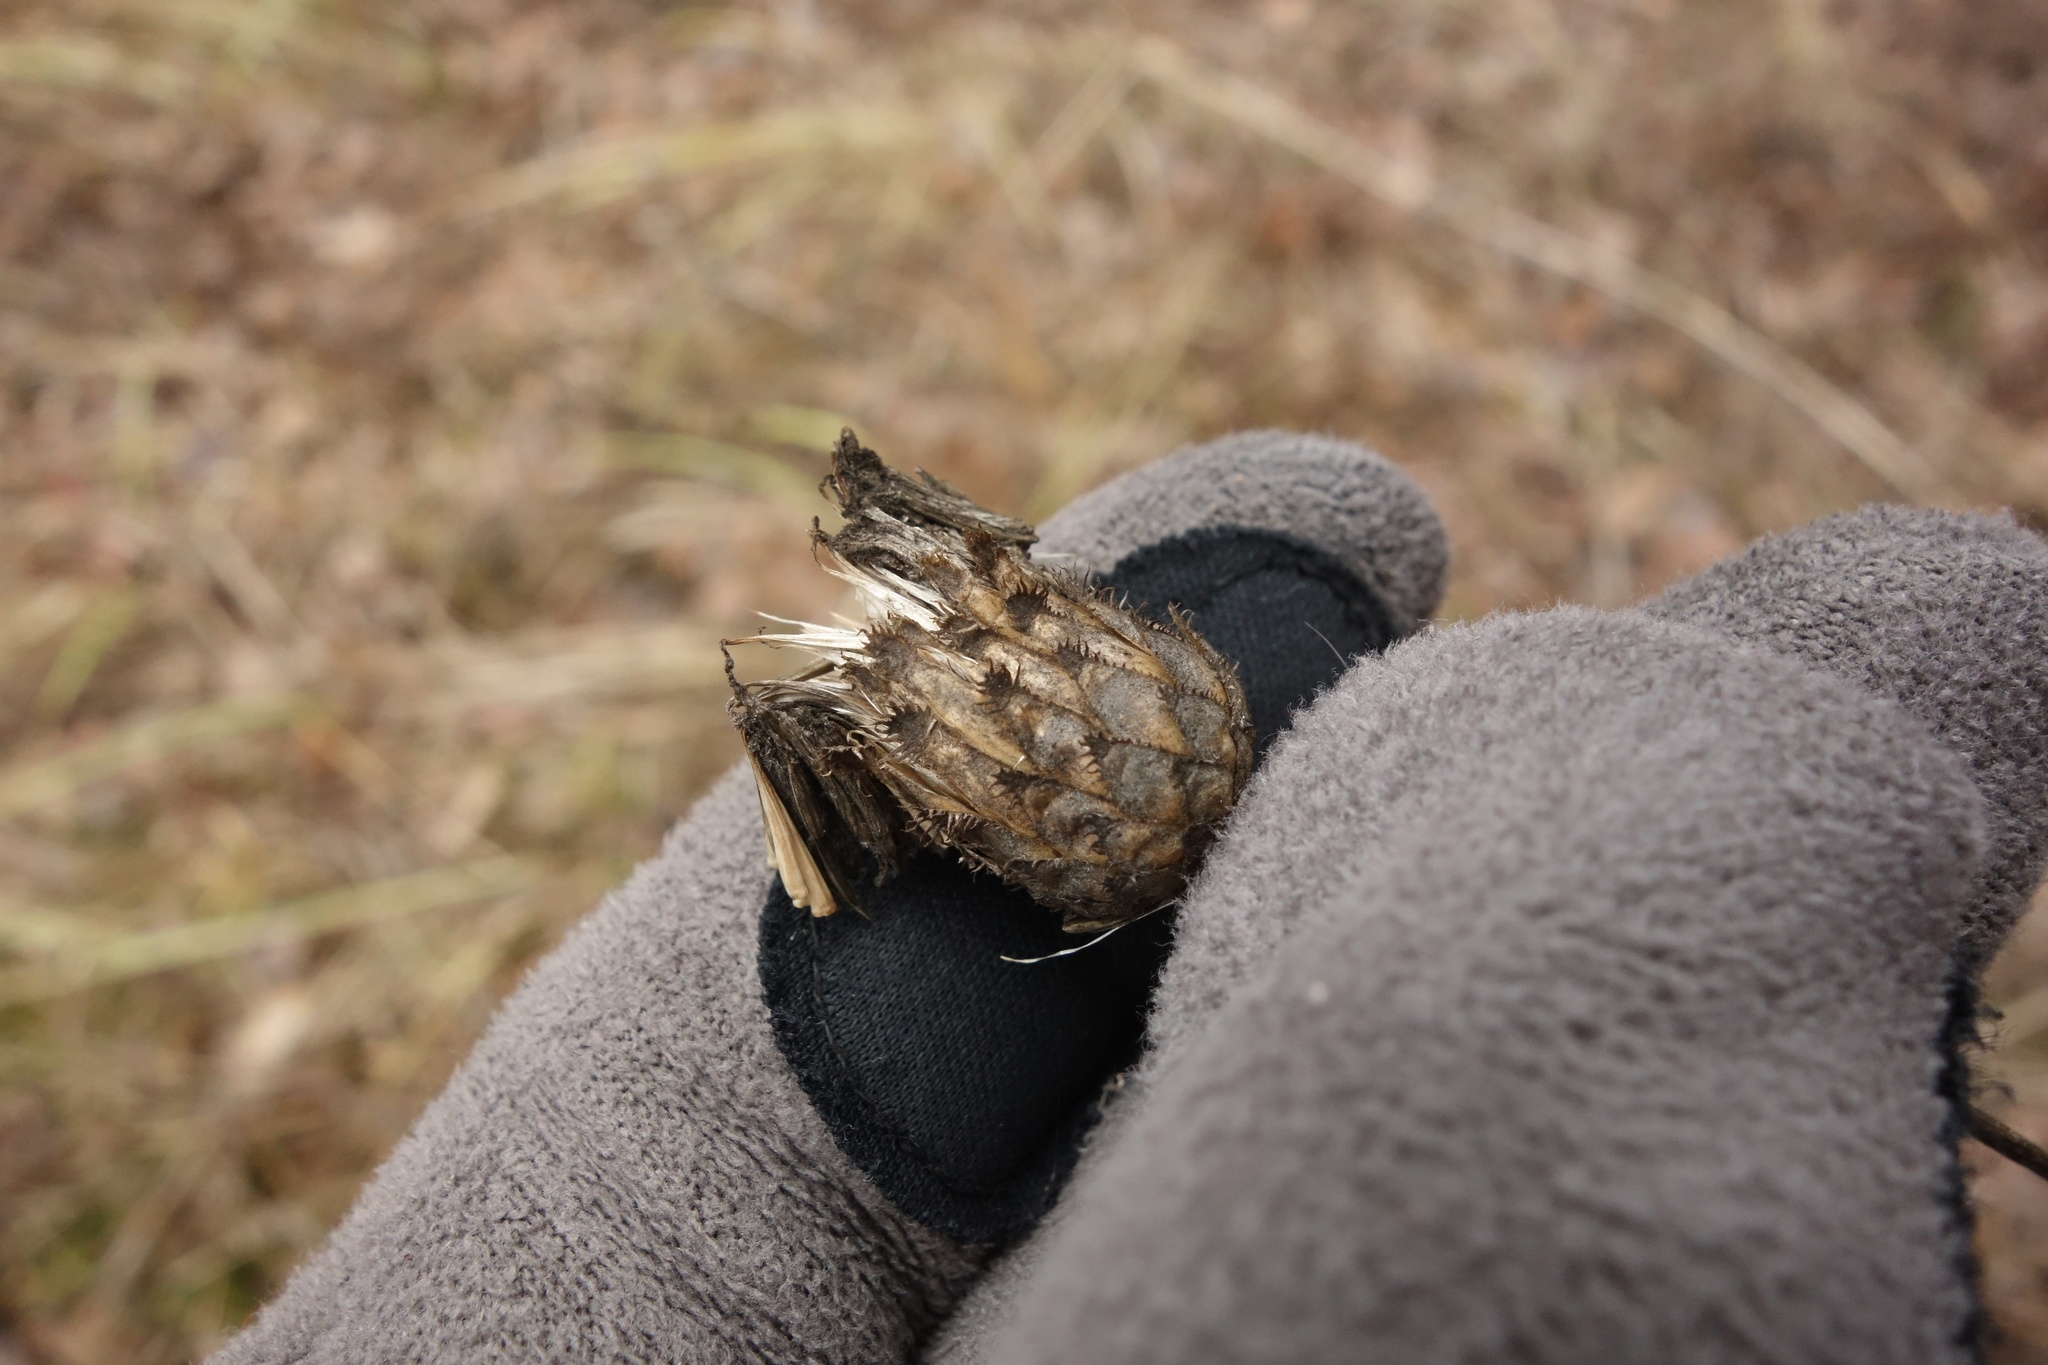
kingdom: Plantae
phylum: Tracheophyta
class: Magnoliopsida
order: Asterales
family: Asteraceae
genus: Centaurea
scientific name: Centaurea scabiosa
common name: Greater knapweed
